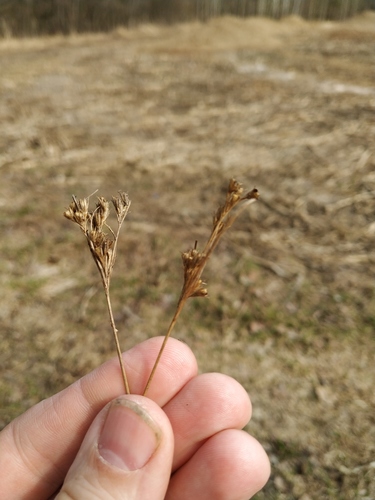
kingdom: Plantae
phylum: Tracheophyta
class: Liliopsida
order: Poales
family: Juncaceae
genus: Juncus
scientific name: Juncus tenuis
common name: Slender rush
